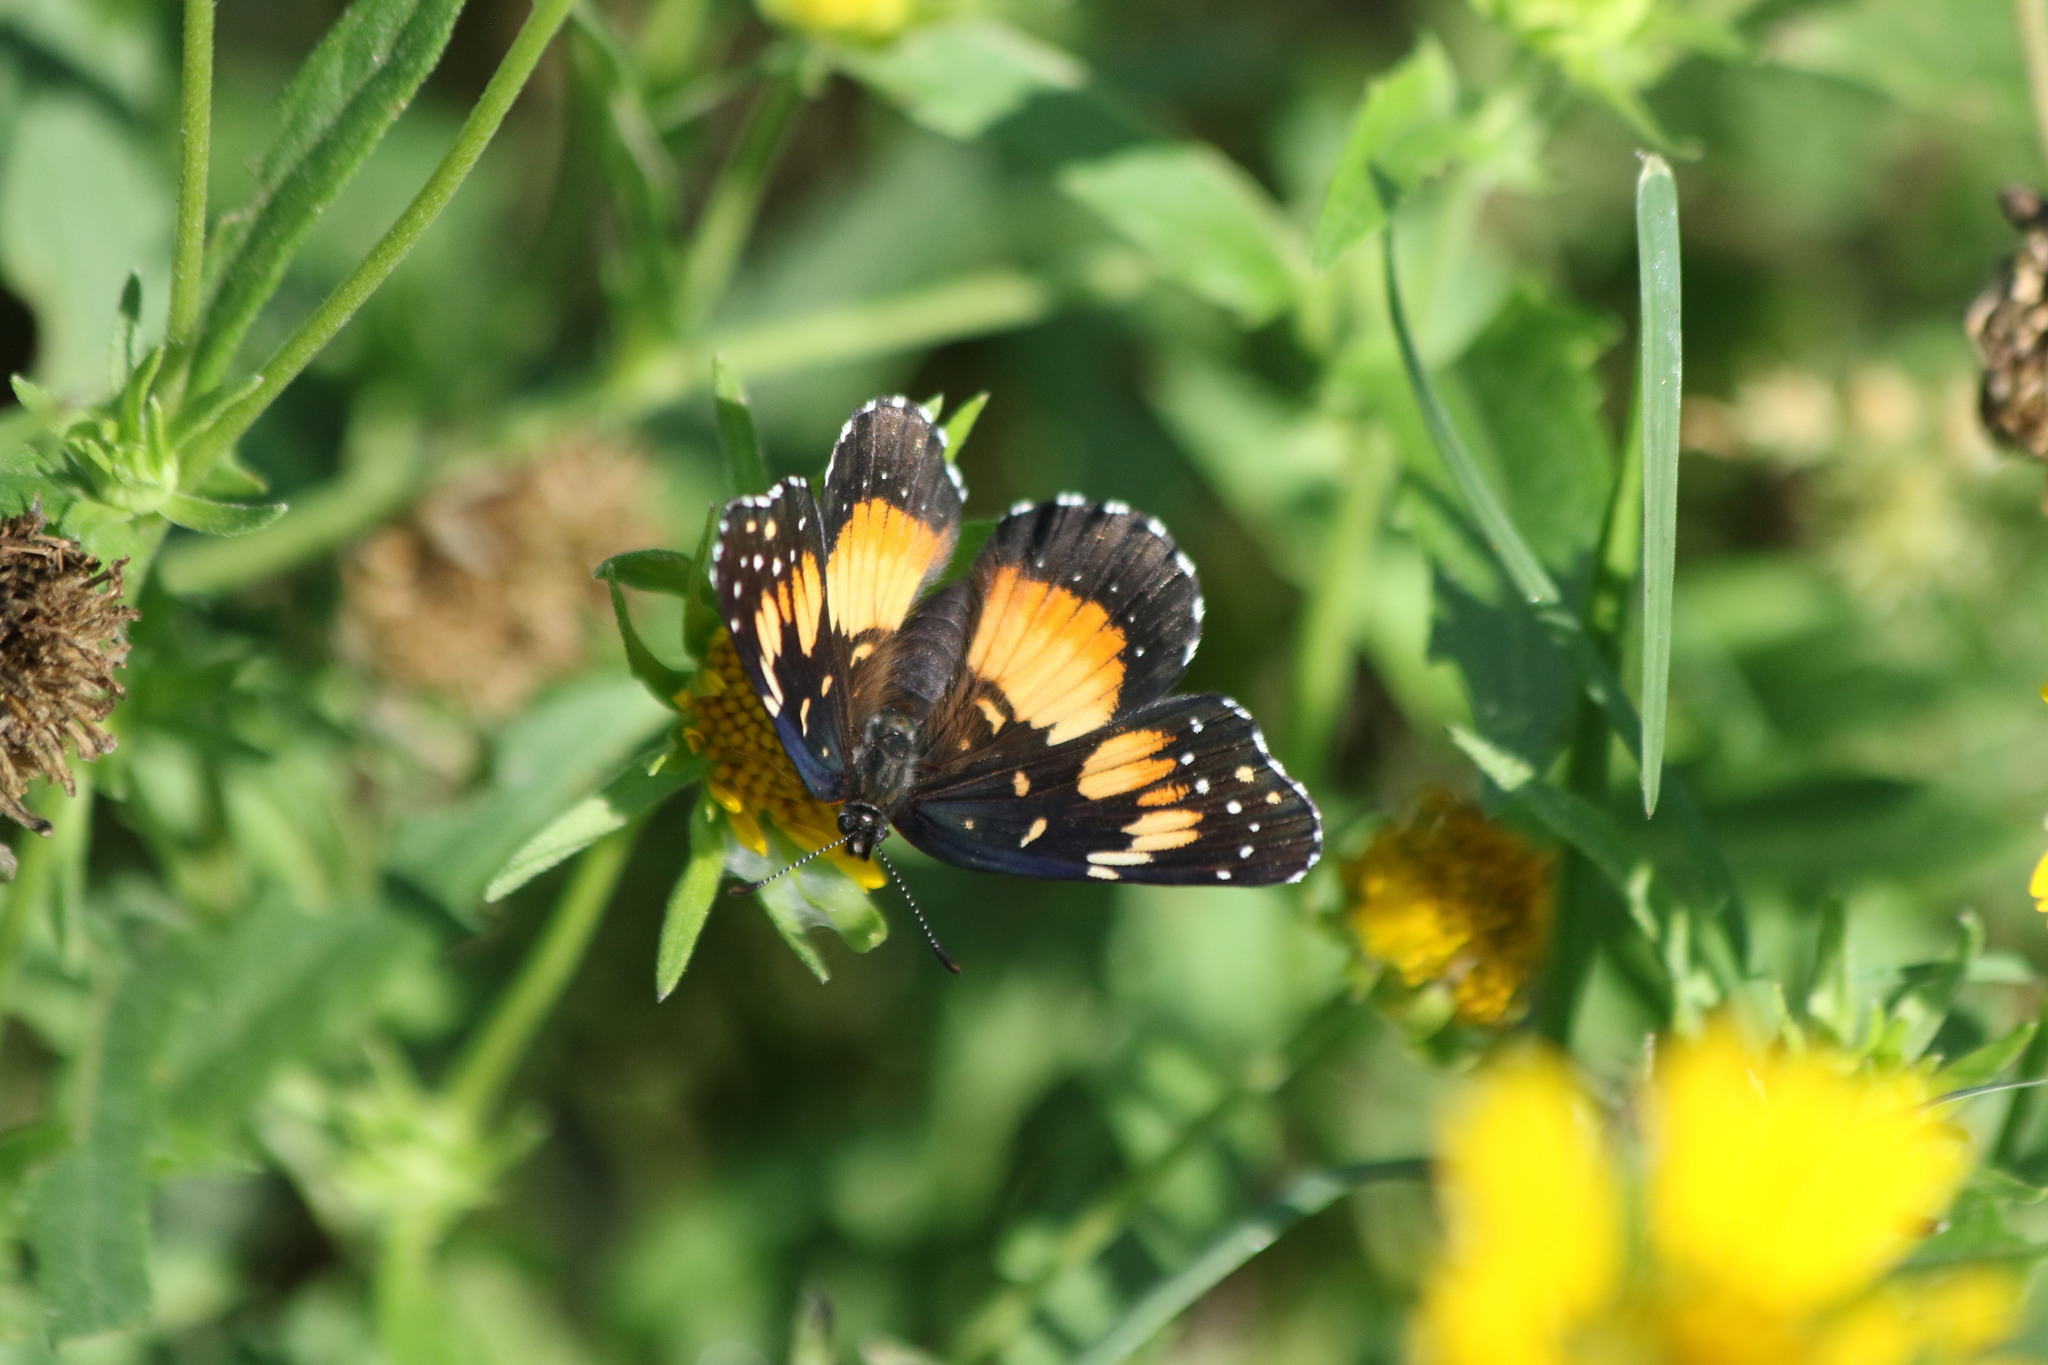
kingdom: Animalia
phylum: Arthropoda
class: Insecta
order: Lepidoptera
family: Nymphalidae
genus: Chlosyne
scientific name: Chlosyne lacinia
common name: Bordered patch
